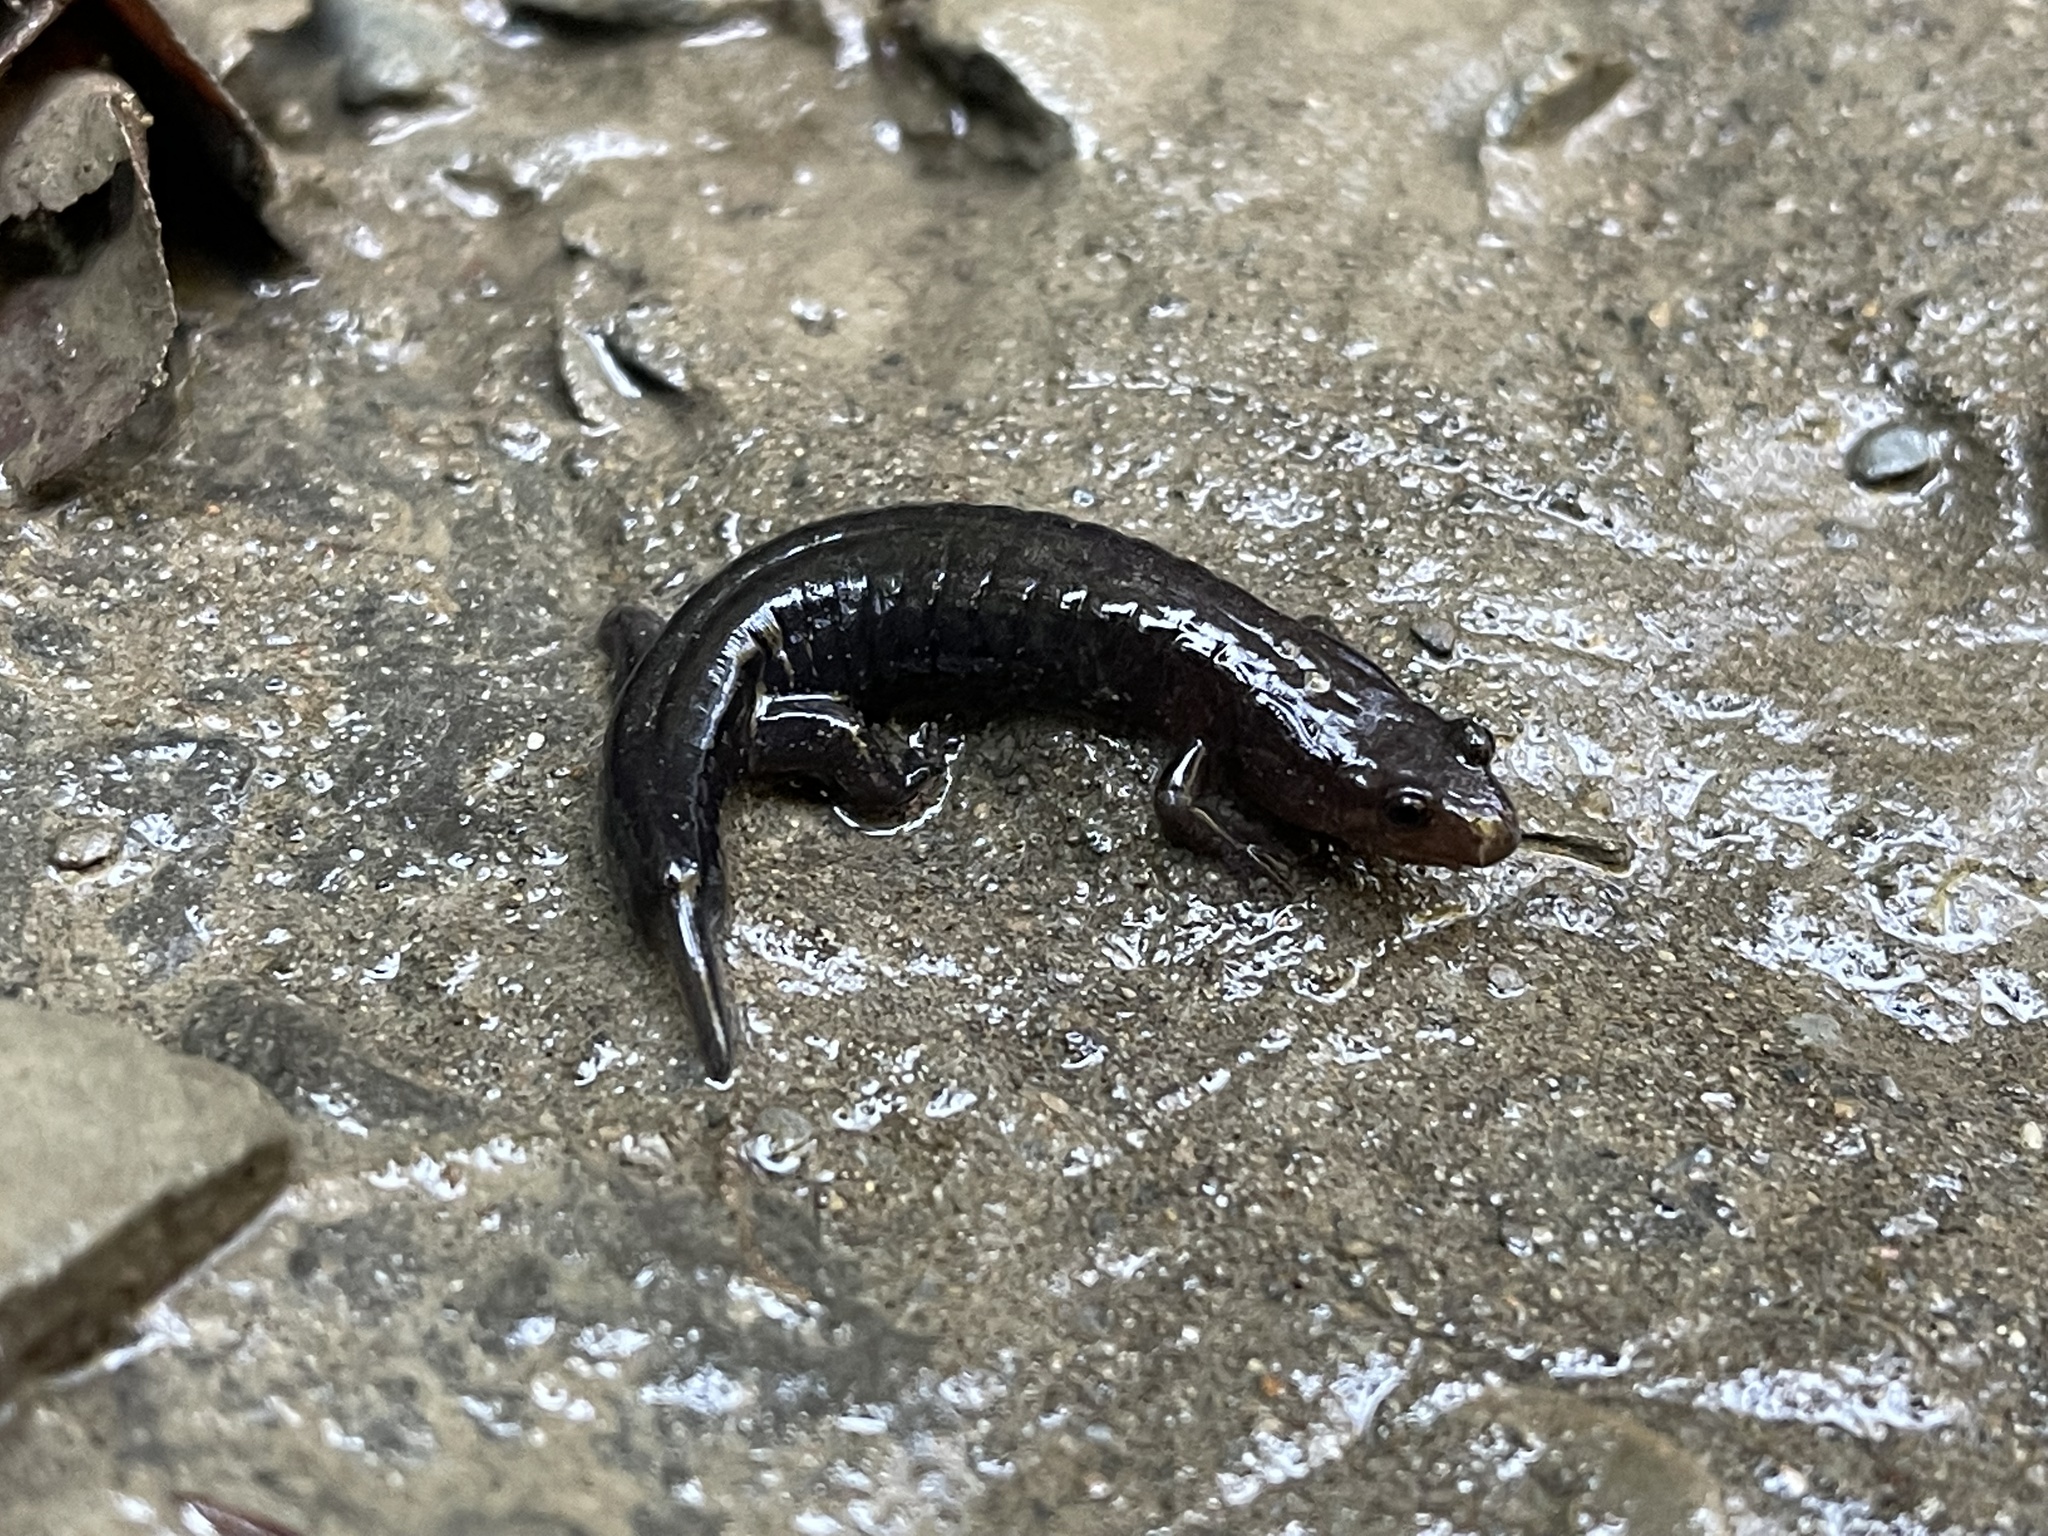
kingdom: Animalia
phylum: Chordata
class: Amphibia
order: Caudata
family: Plethodontidae
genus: Desmognathus
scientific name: Desmognathus fuscus
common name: Northern dusky salamander
